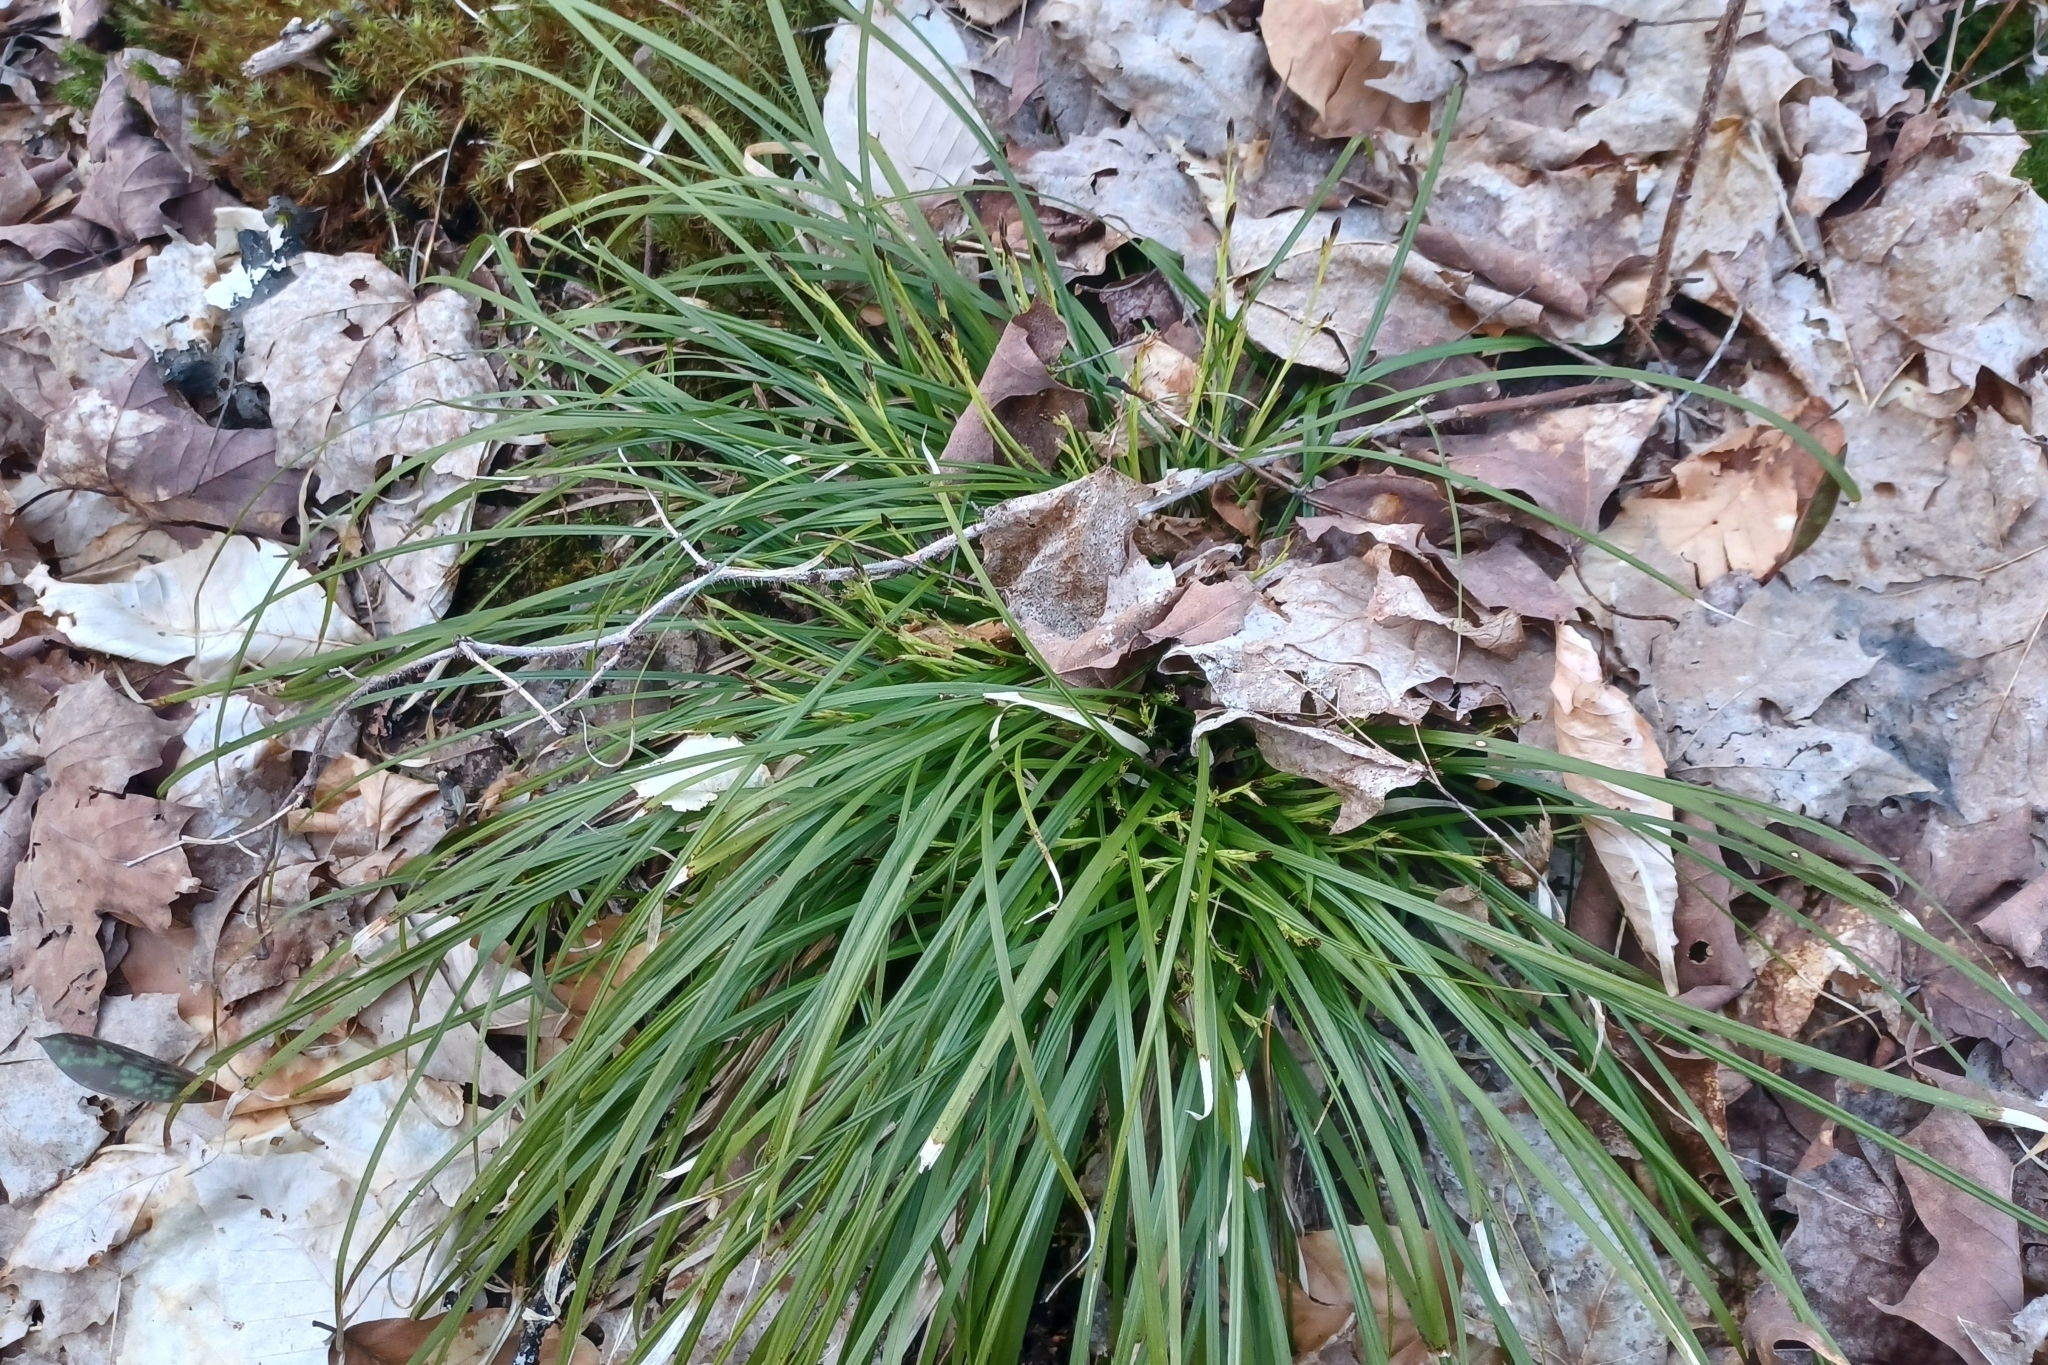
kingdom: Plantae
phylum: Tracheophyta
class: Liliopsida
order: Poales
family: Cyperaceae
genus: Carex
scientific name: Carex pedunculata
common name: Pedunculate sedge
